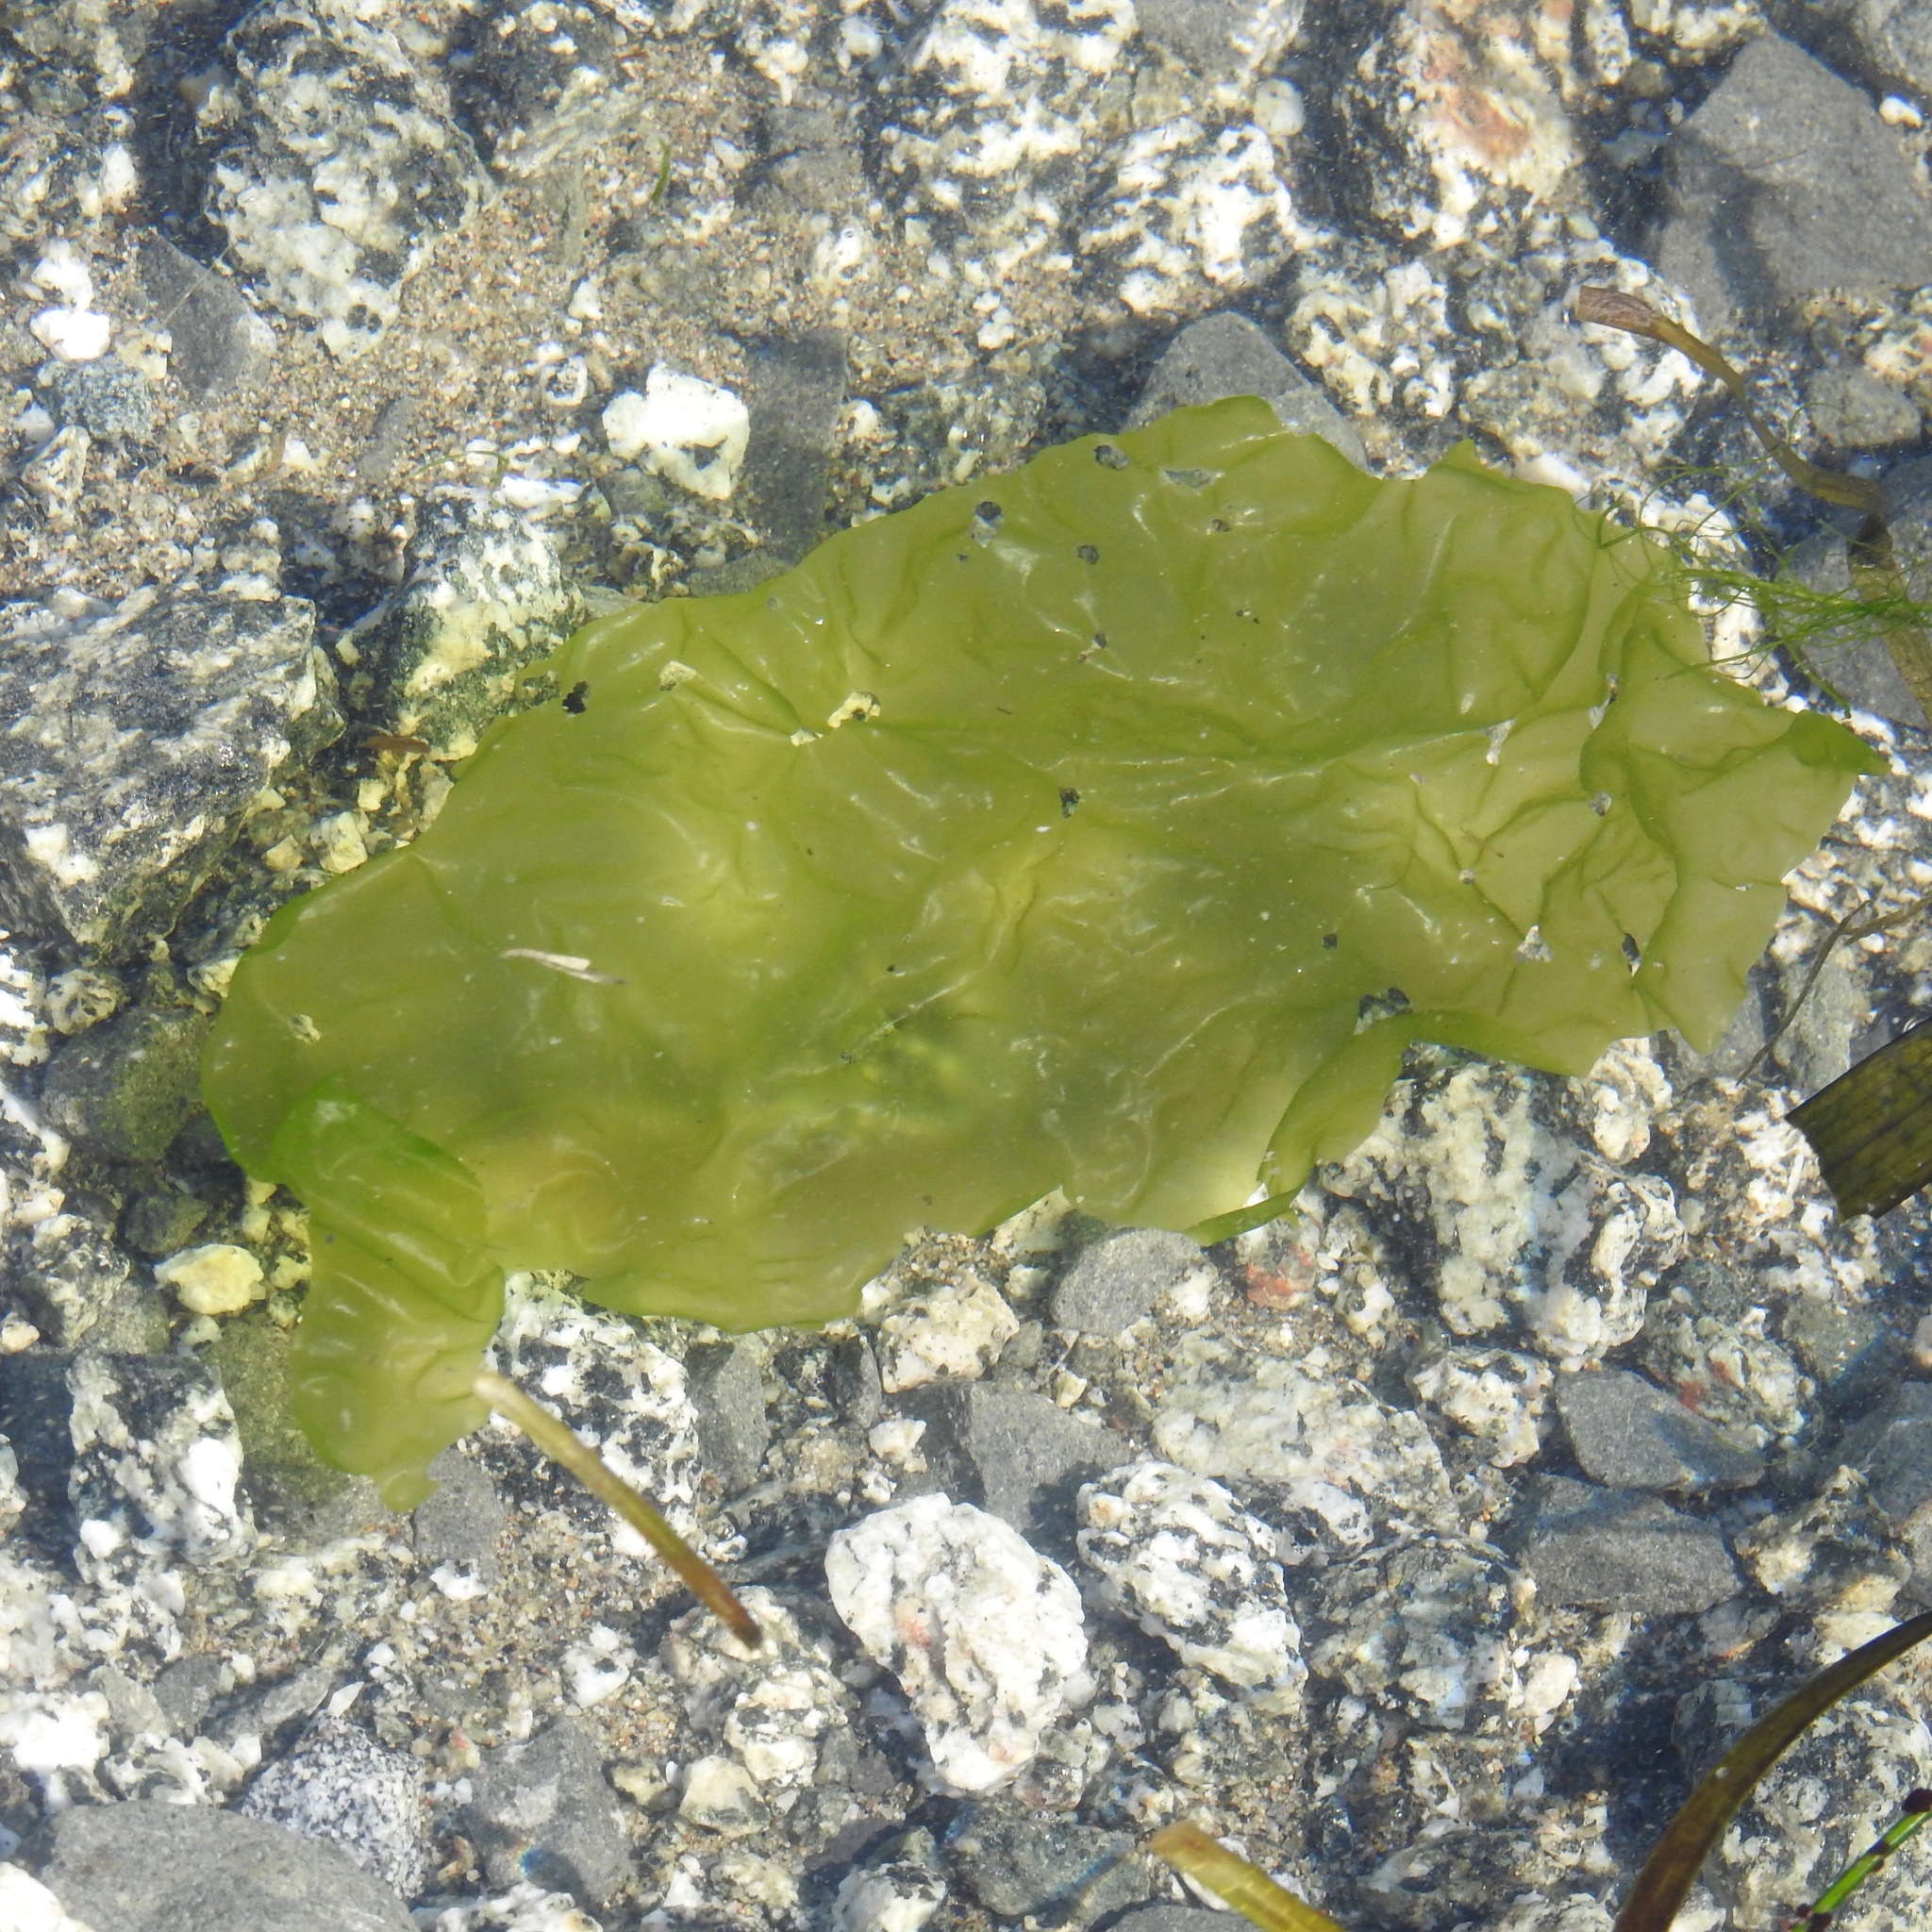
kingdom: Plantae
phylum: Chlorophyta
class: Ulvophyceae
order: Ulvales
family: Ulvaceae
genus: Ulva
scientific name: Ulva lactuca
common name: Sea lettuce
